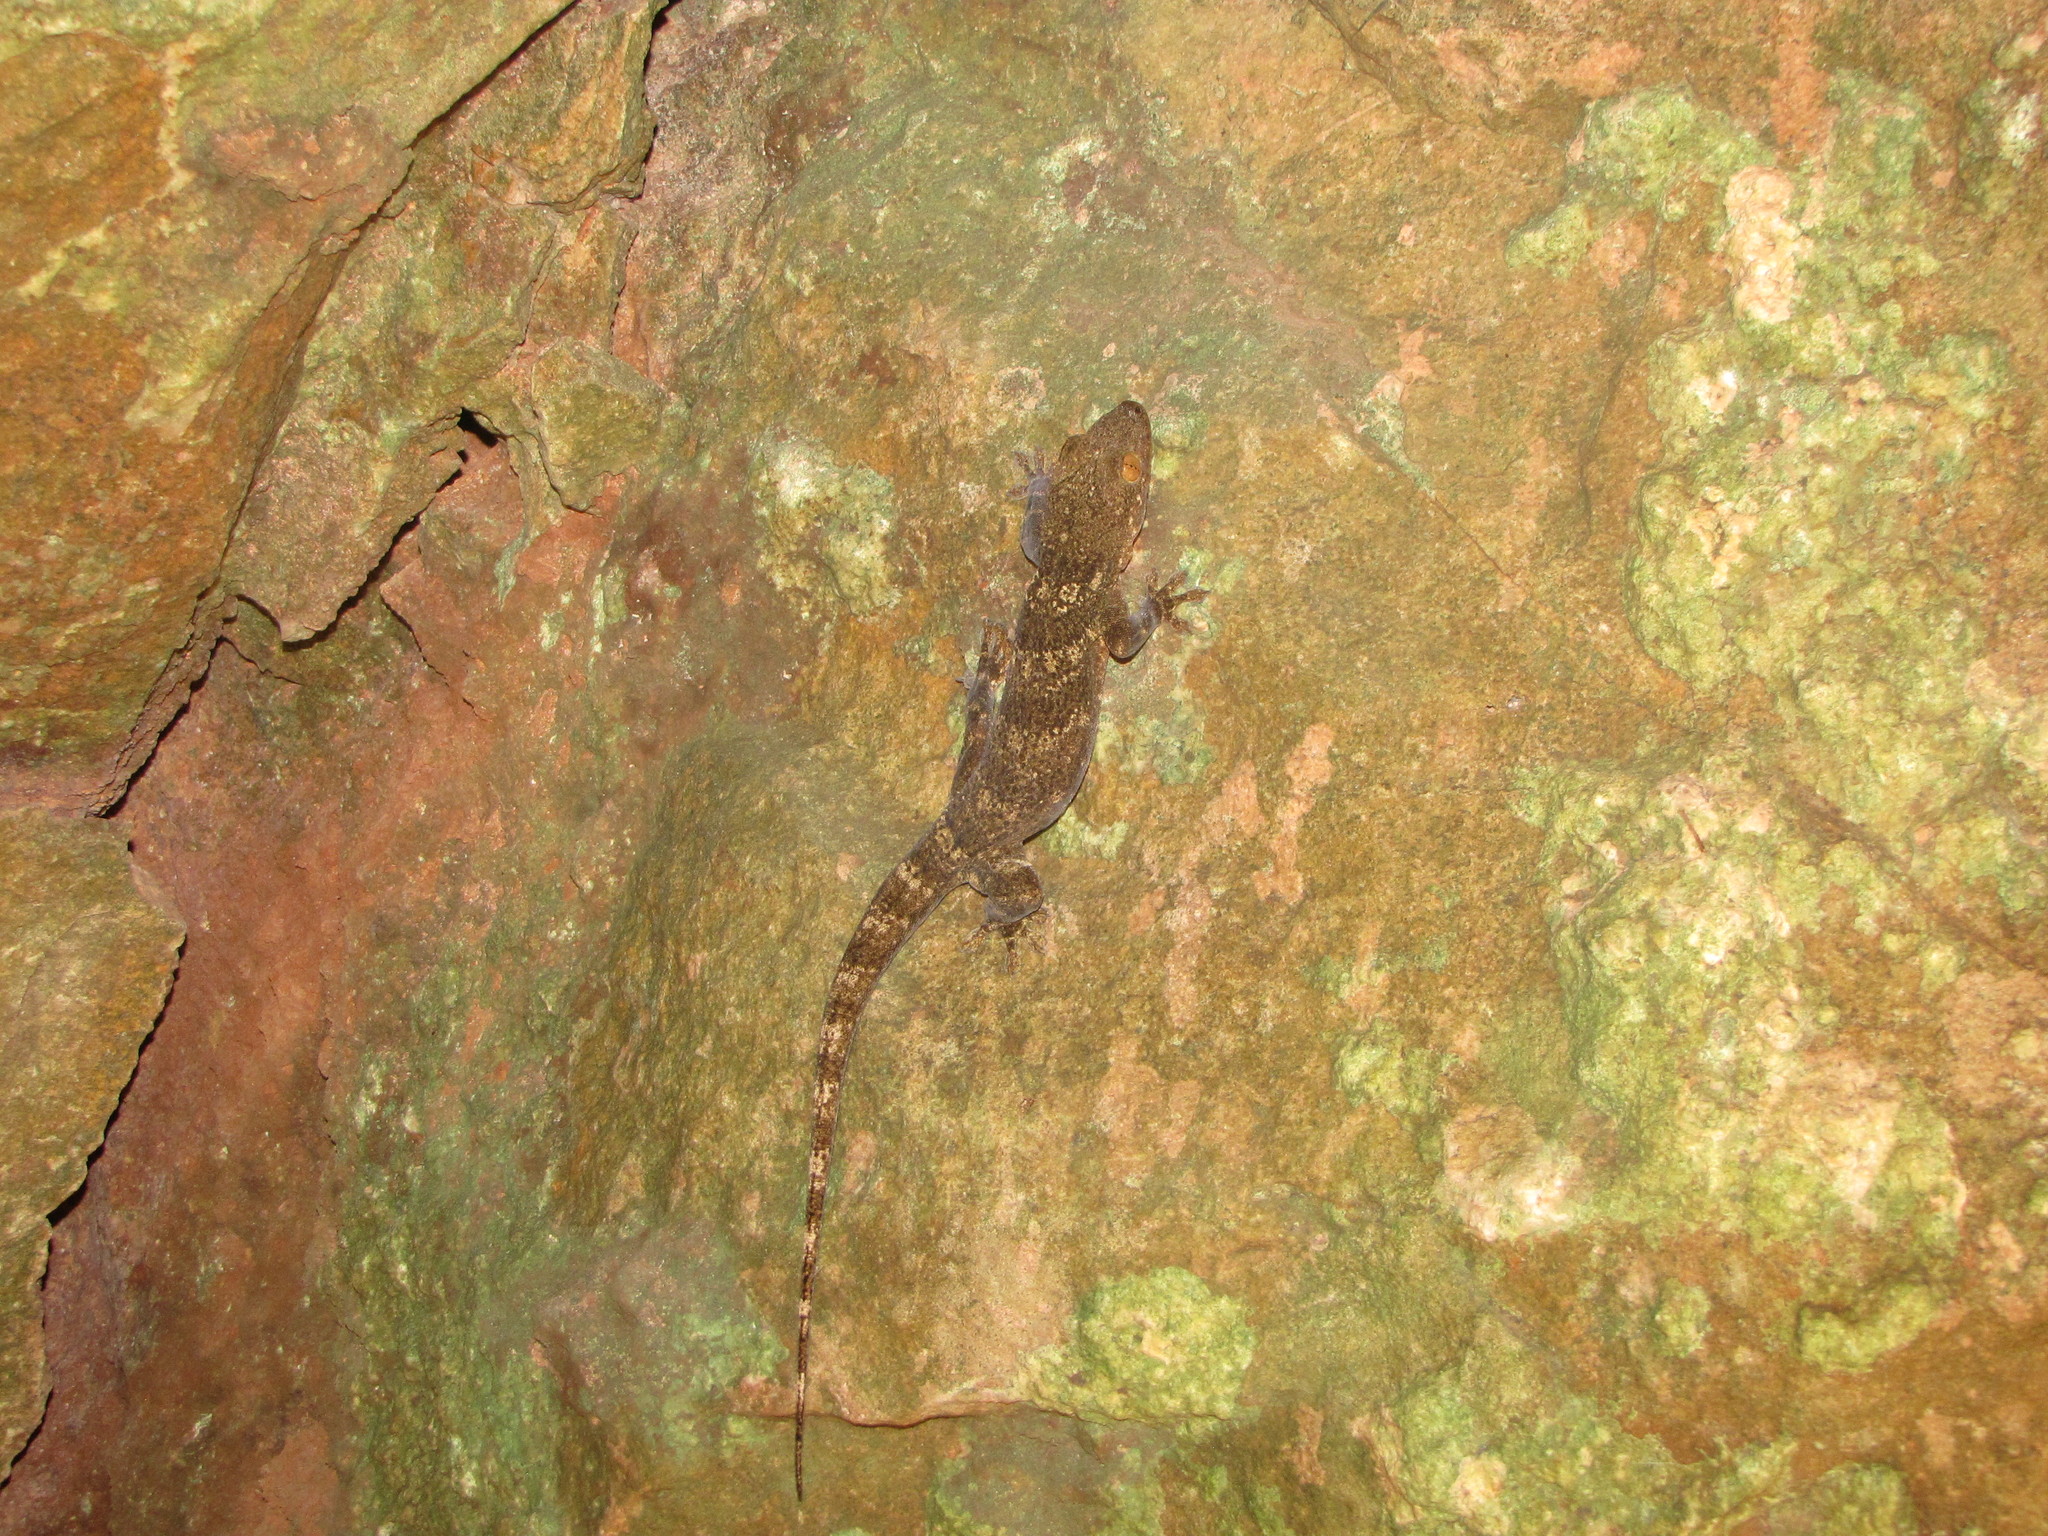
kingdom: Animalia
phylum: Chordata
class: Squamata
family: Gekkonidae
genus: Blaesodactylus
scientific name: Blaesodactylus boivini
